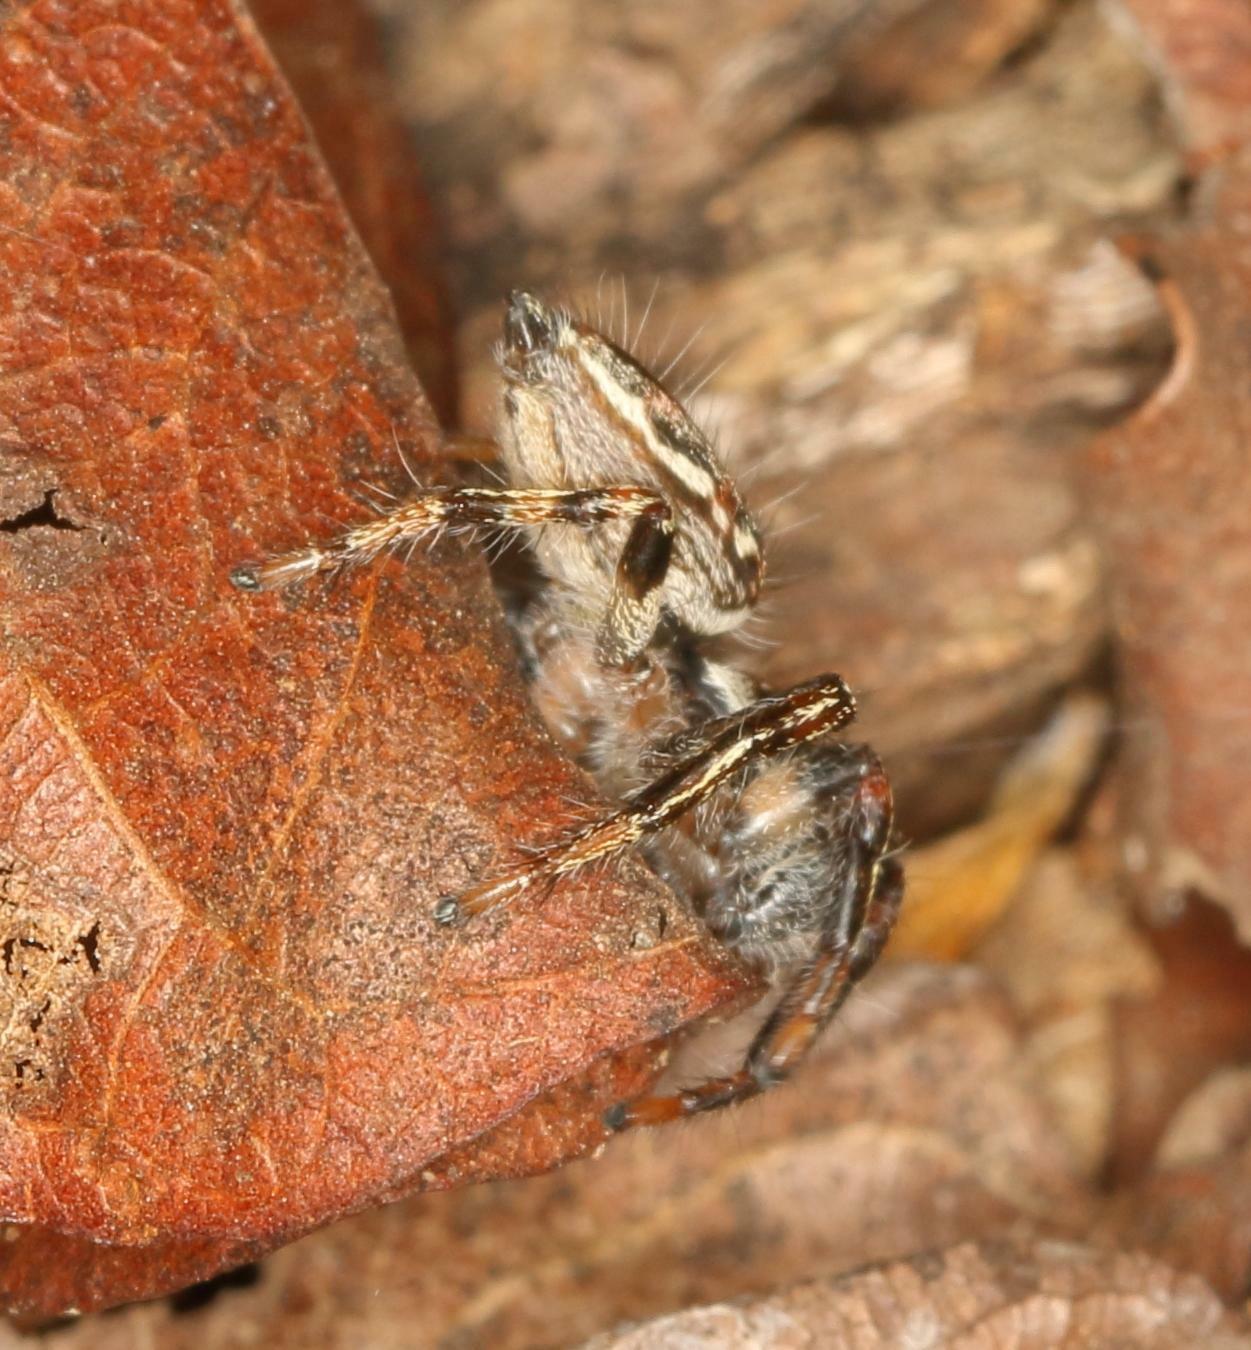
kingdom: Animalia
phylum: Arthropoda
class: Arachnida
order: Araneae
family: Salticidae
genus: Hyllus
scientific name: Hyllus argyrotoxus
